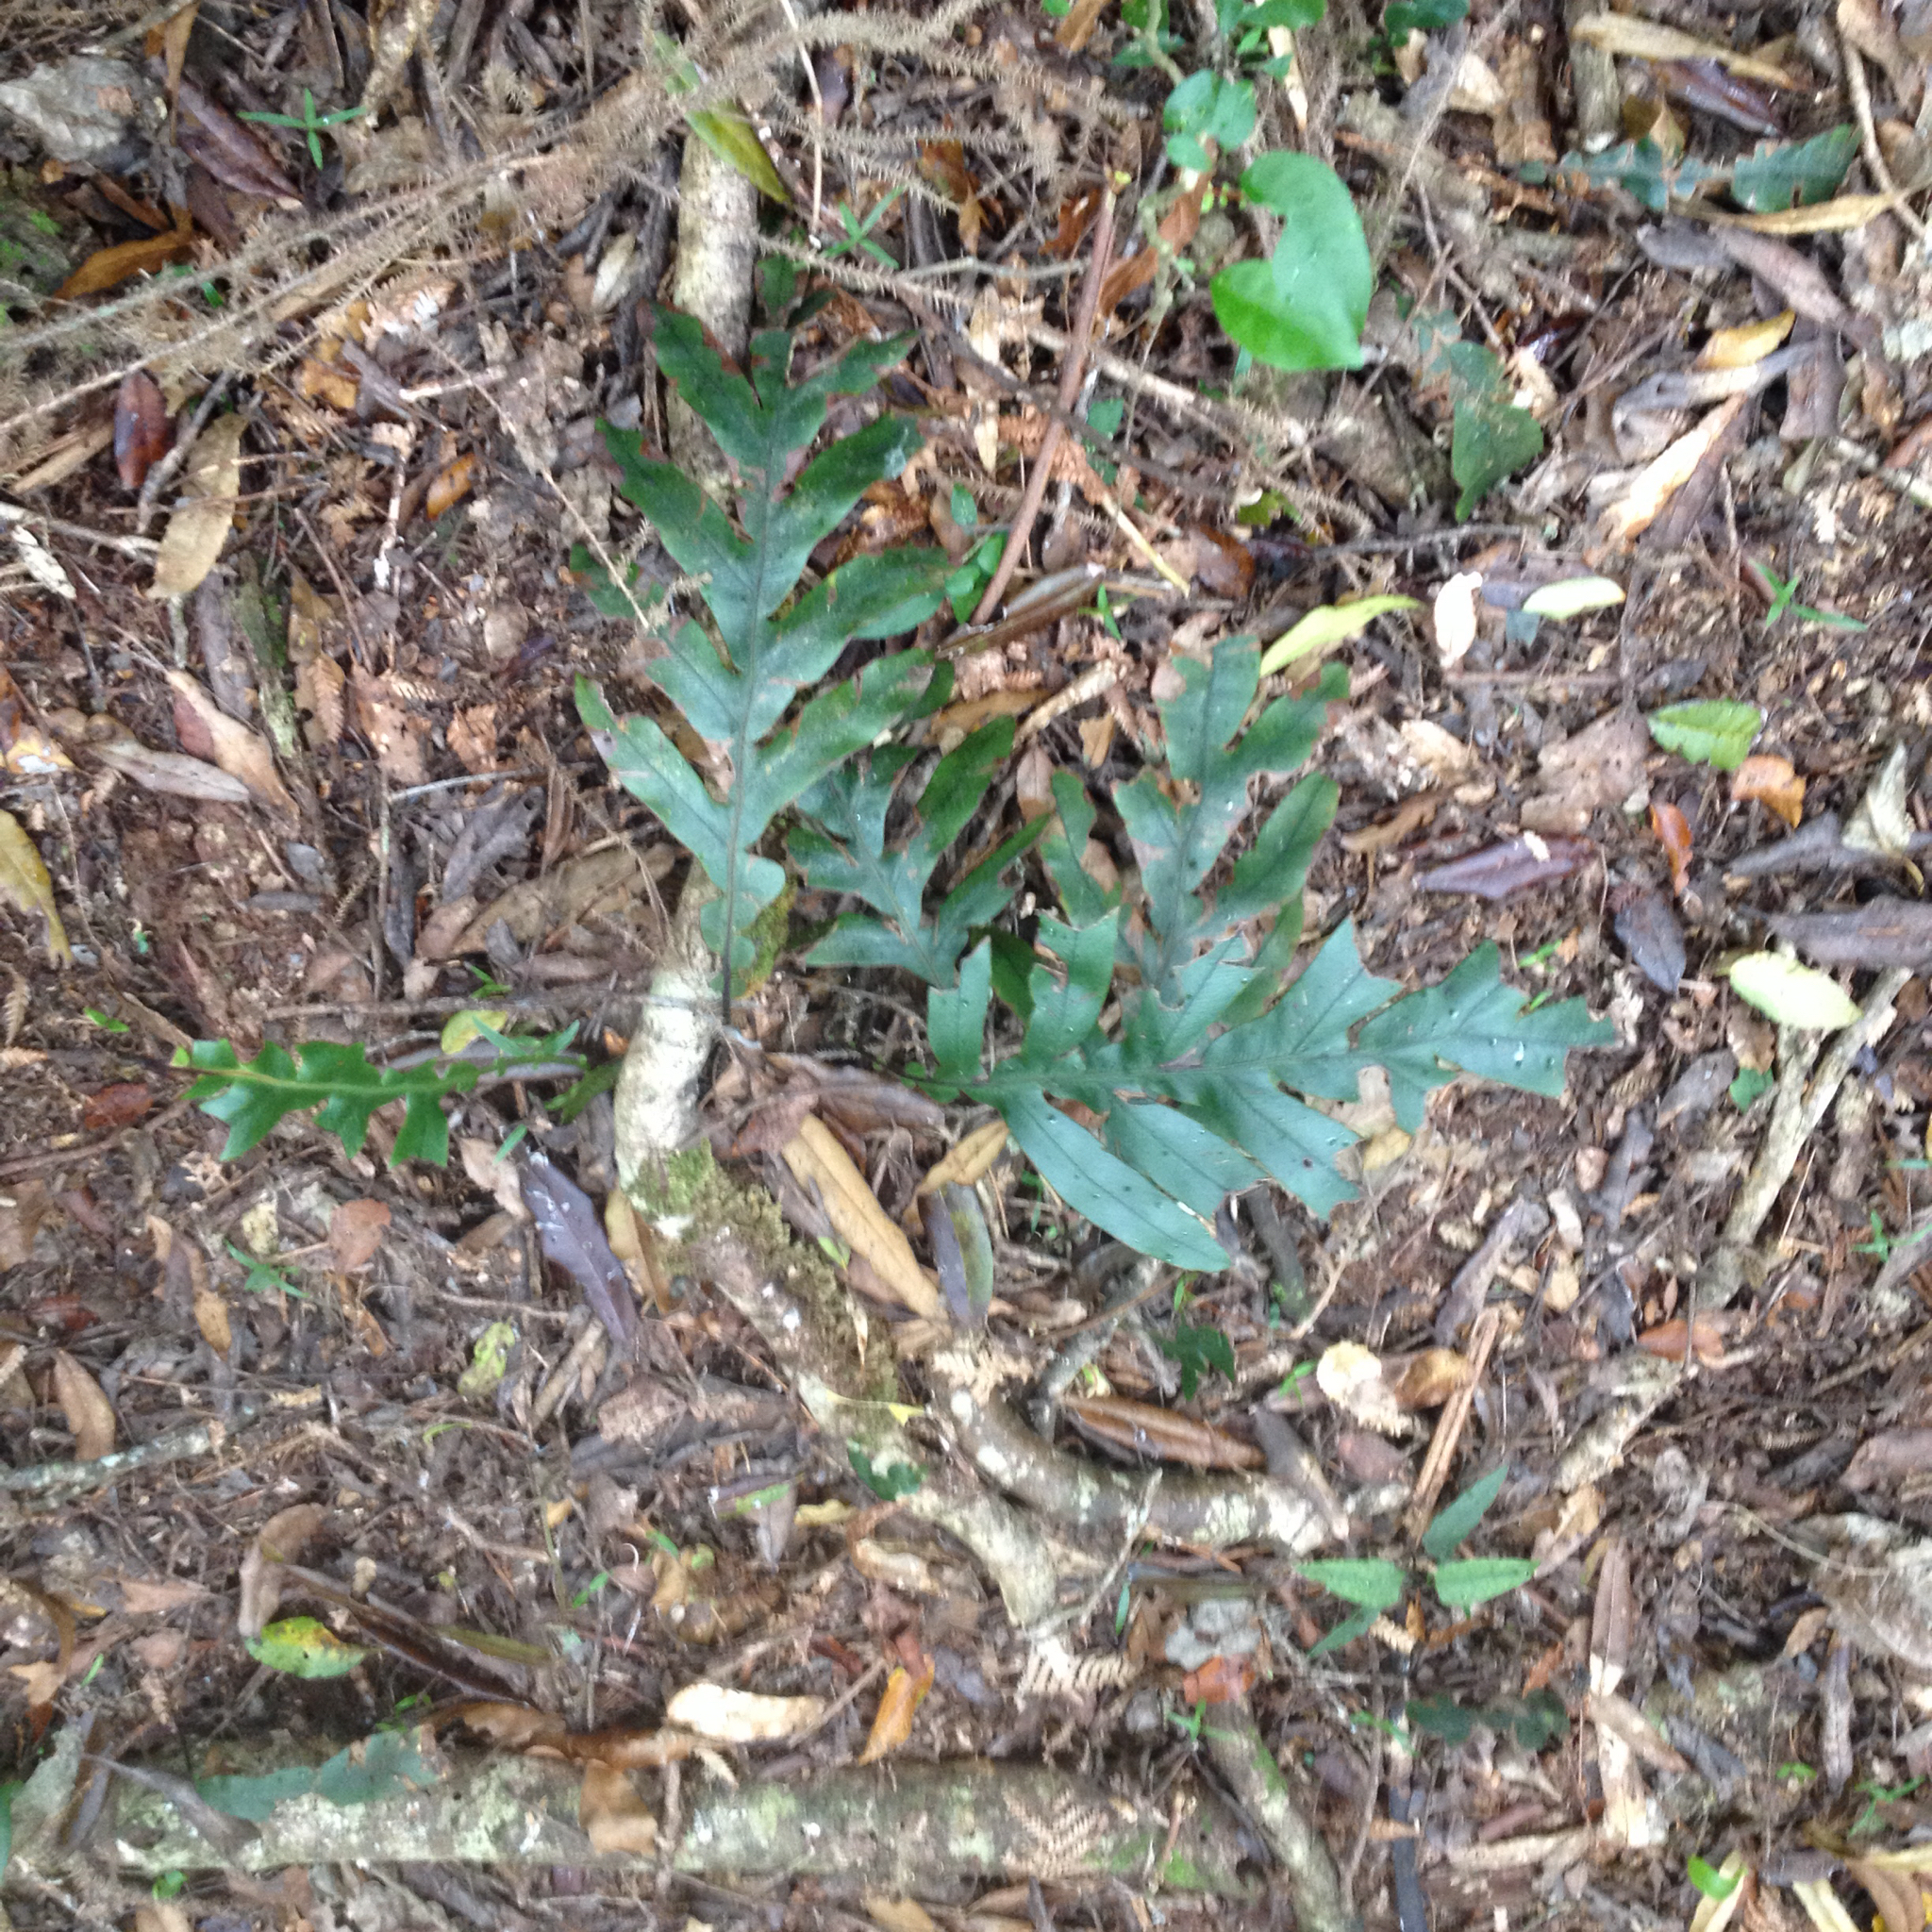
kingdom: Plantae
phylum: Tracheophyta
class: Polypodiopsida
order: Polypodiales
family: Blechnaceae
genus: Austroblechnum
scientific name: Austroblechnum colensoi
